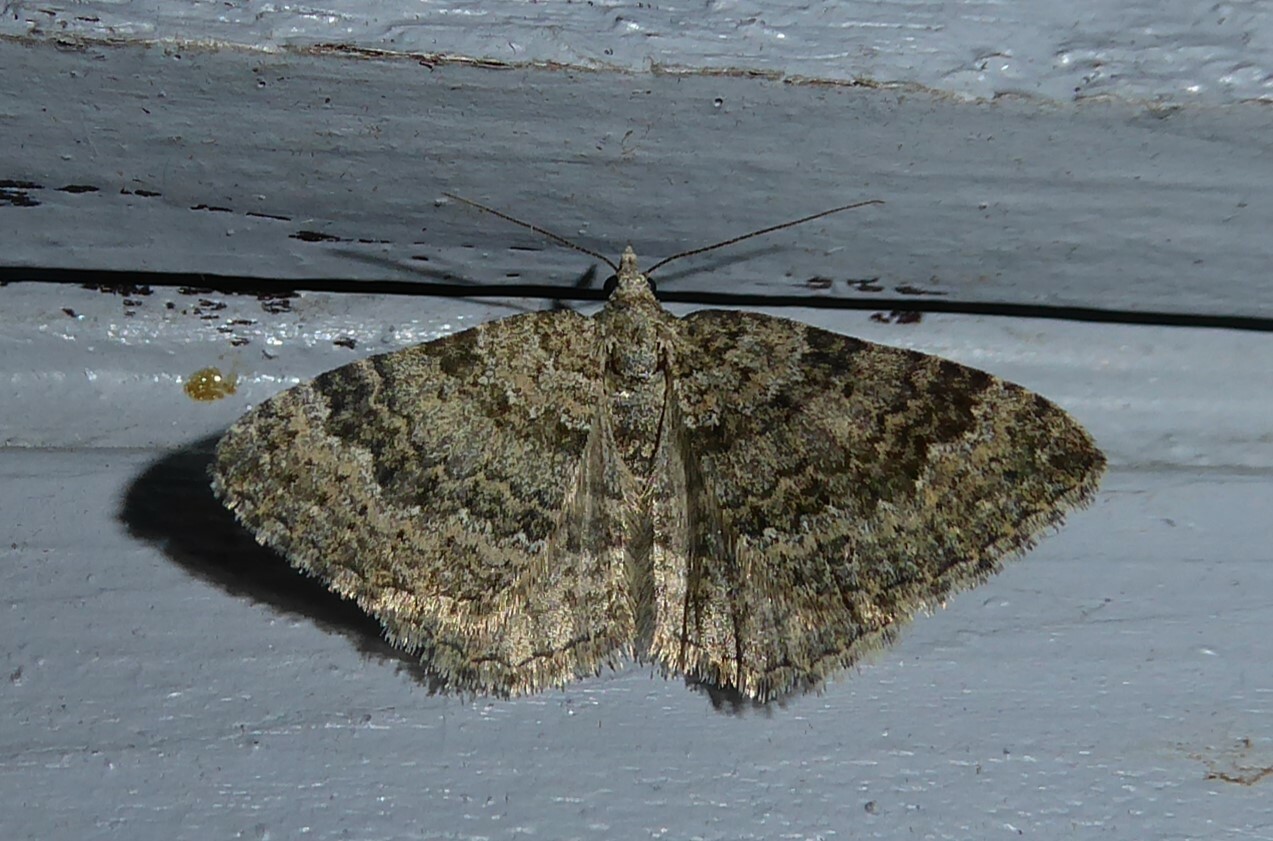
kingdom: Animalia
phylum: Arthropoda
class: Insecta
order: Lepidoptera
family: Geometridae
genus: Helastia
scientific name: Helastia corcularia
